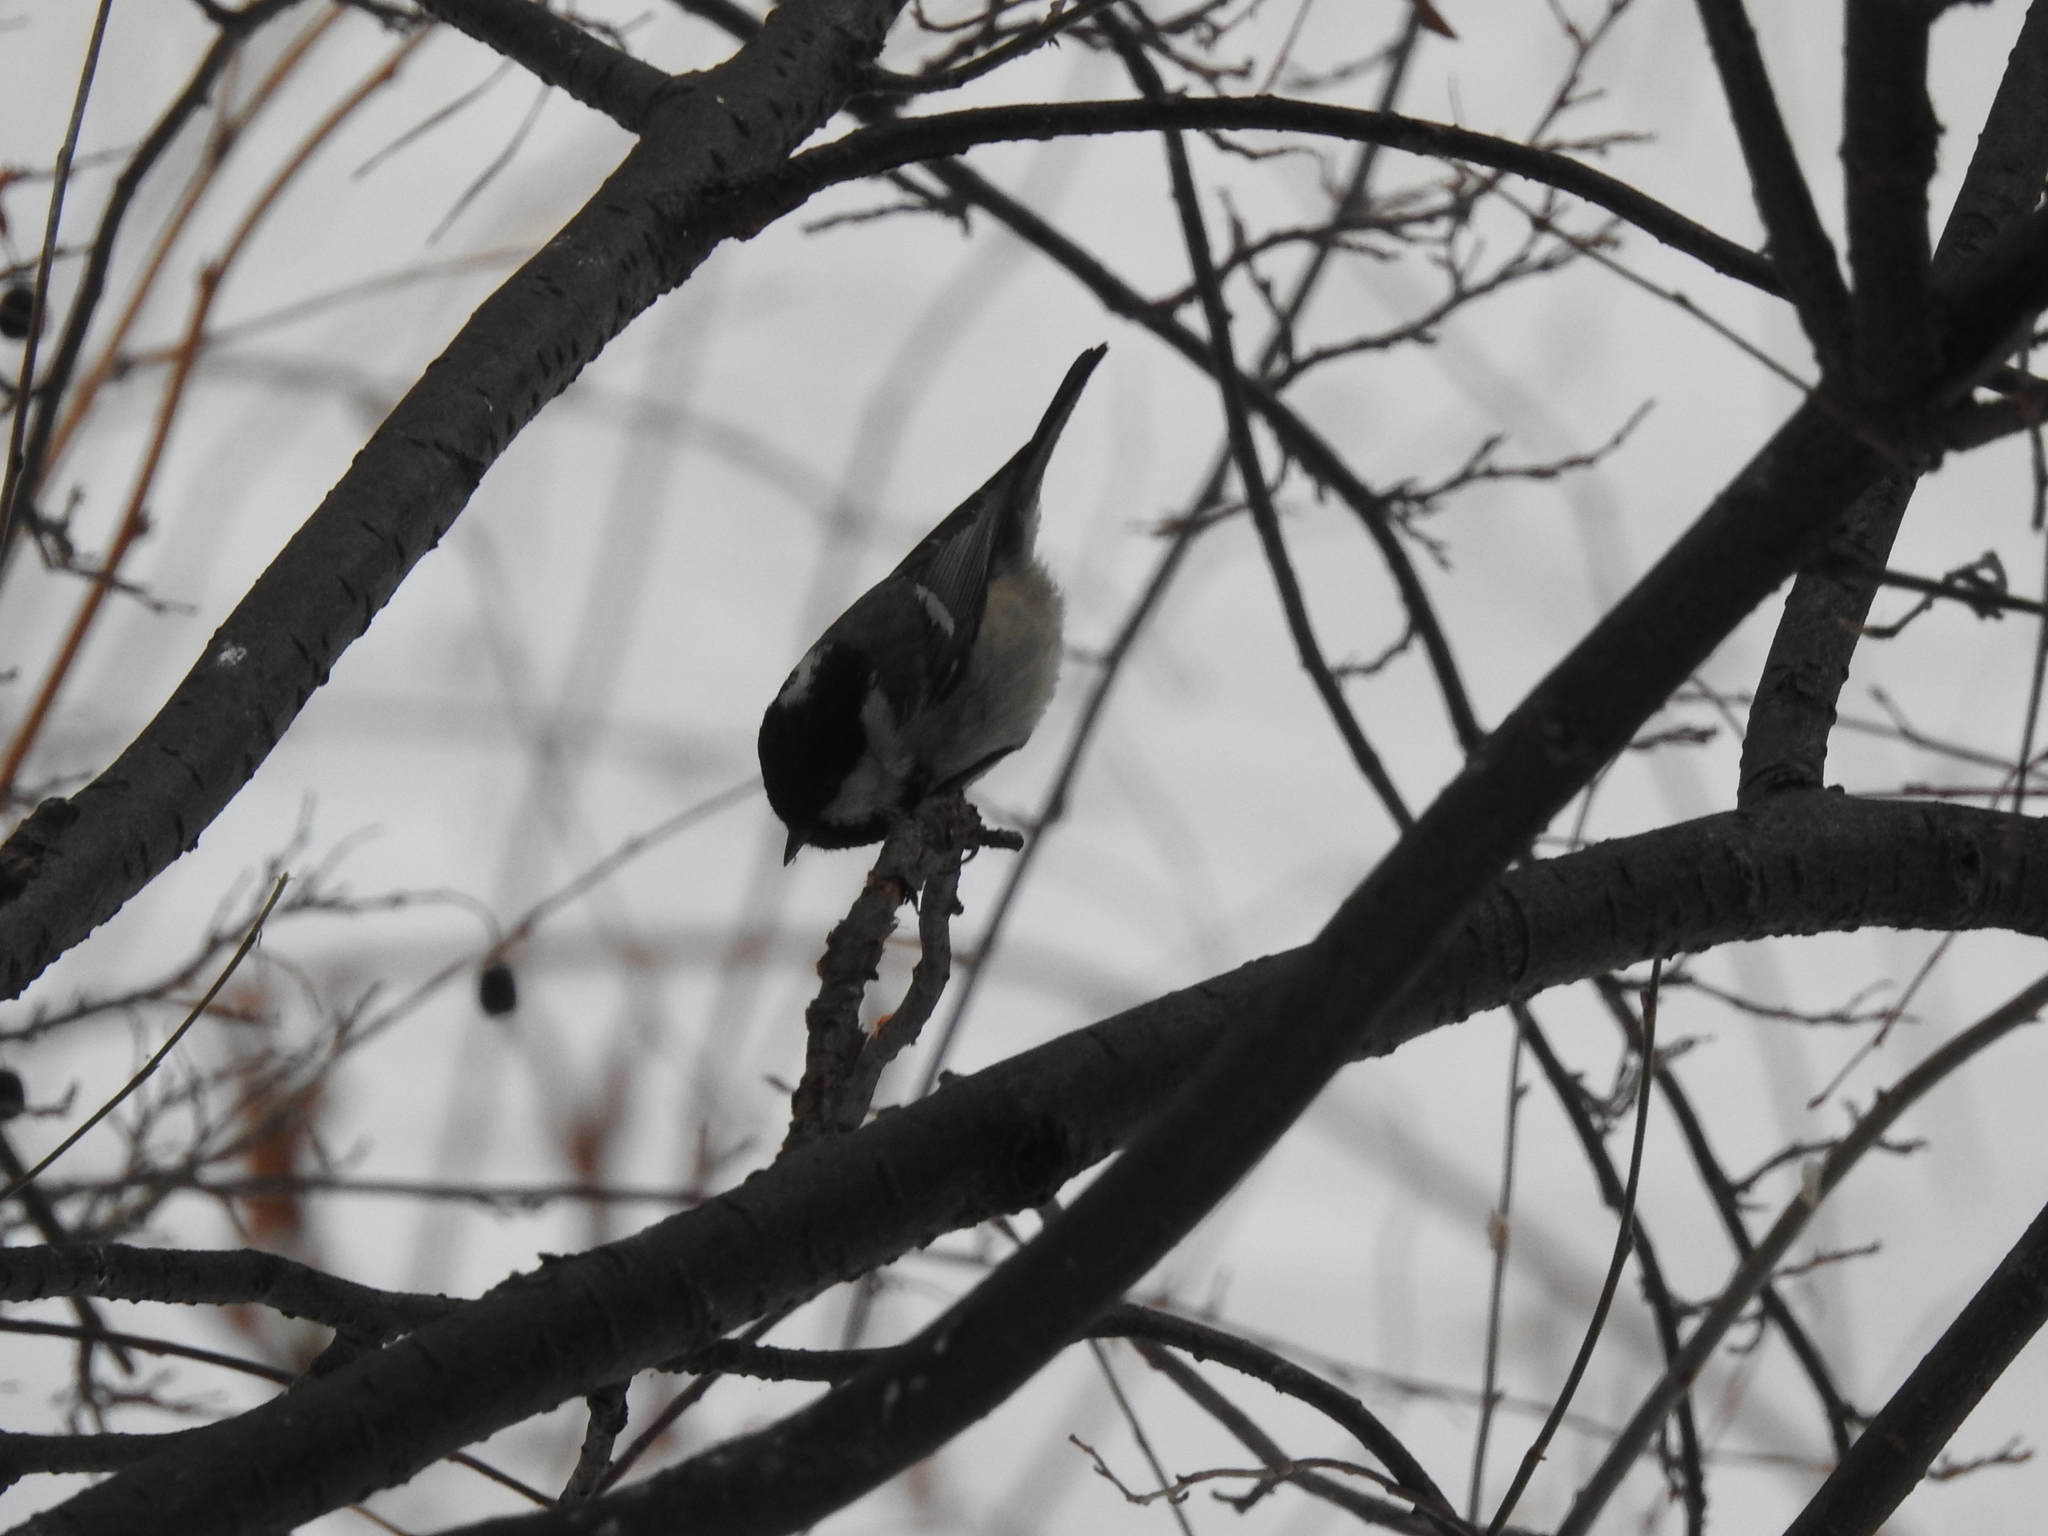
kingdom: Animalia
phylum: Chordata
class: Aves
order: Passeriformes
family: Paridae
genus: Periparus
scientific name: Periparus ater
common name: Coal tit
